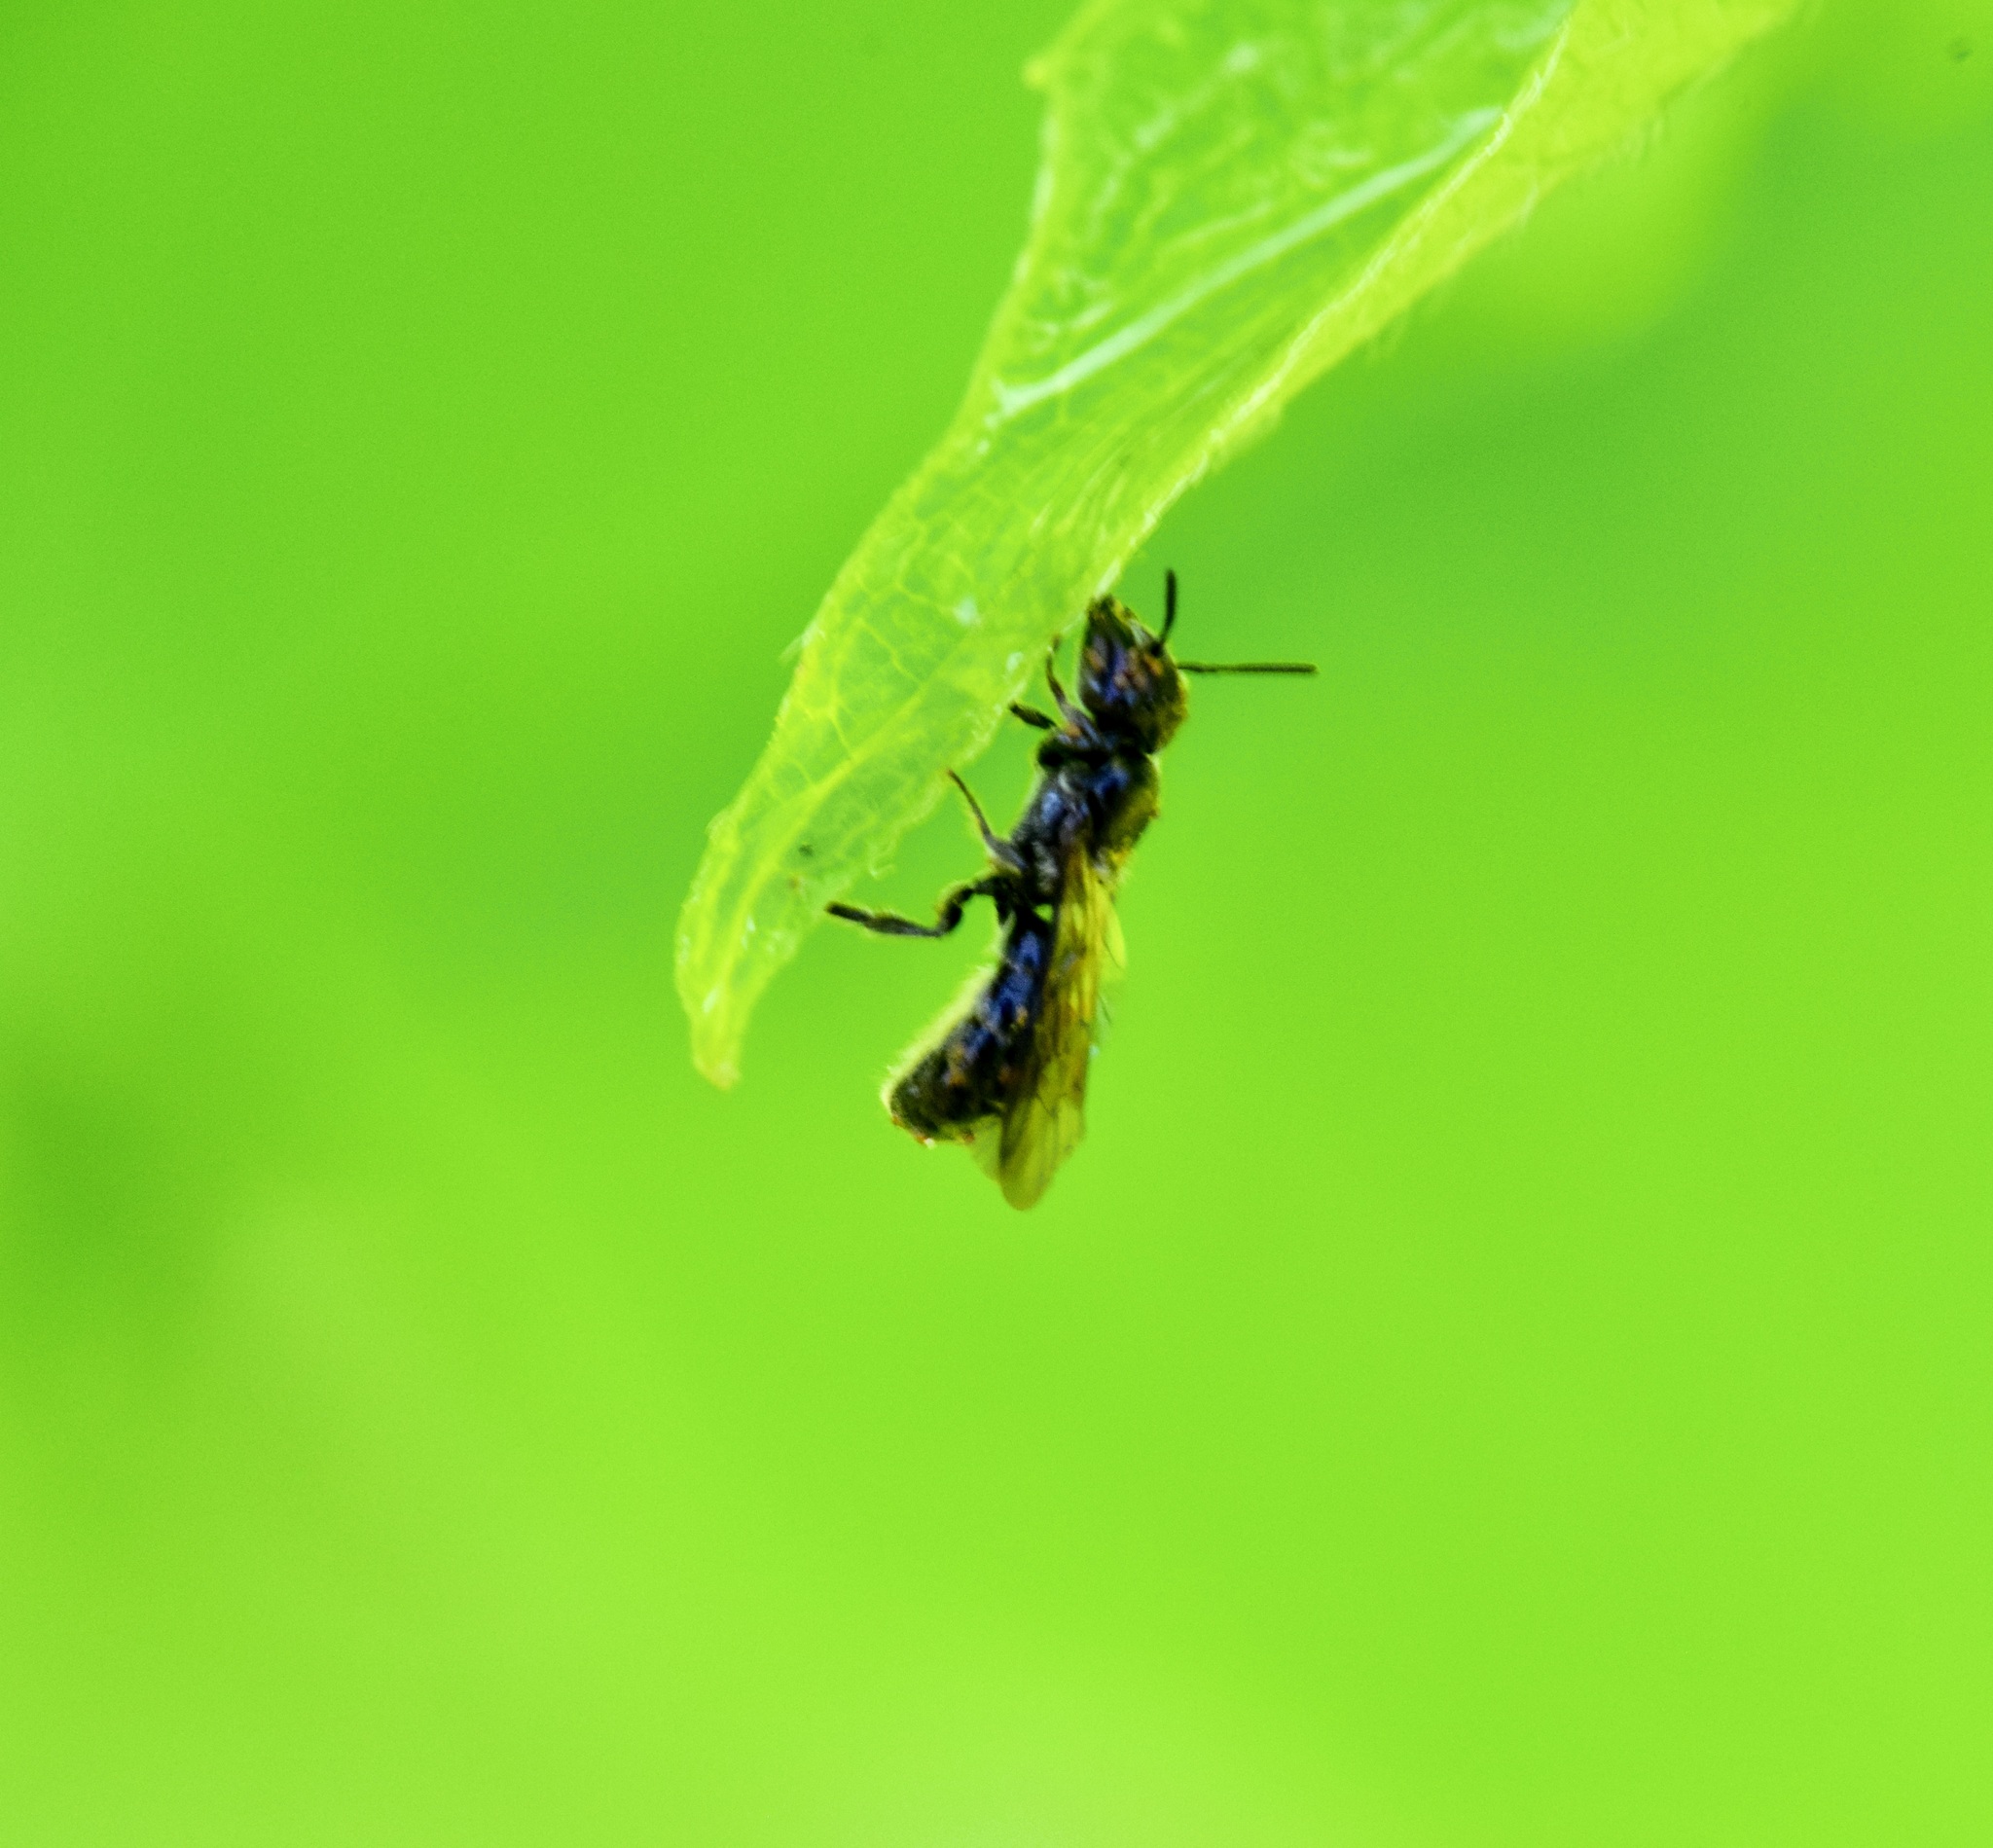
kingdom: Animalia
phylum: Arthropoda
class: Insecta
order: Hymenoptera
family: Megachilidae
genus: Chelostoma
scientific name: Chelostoma philadelphi
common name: Mock-orange scissor bee
